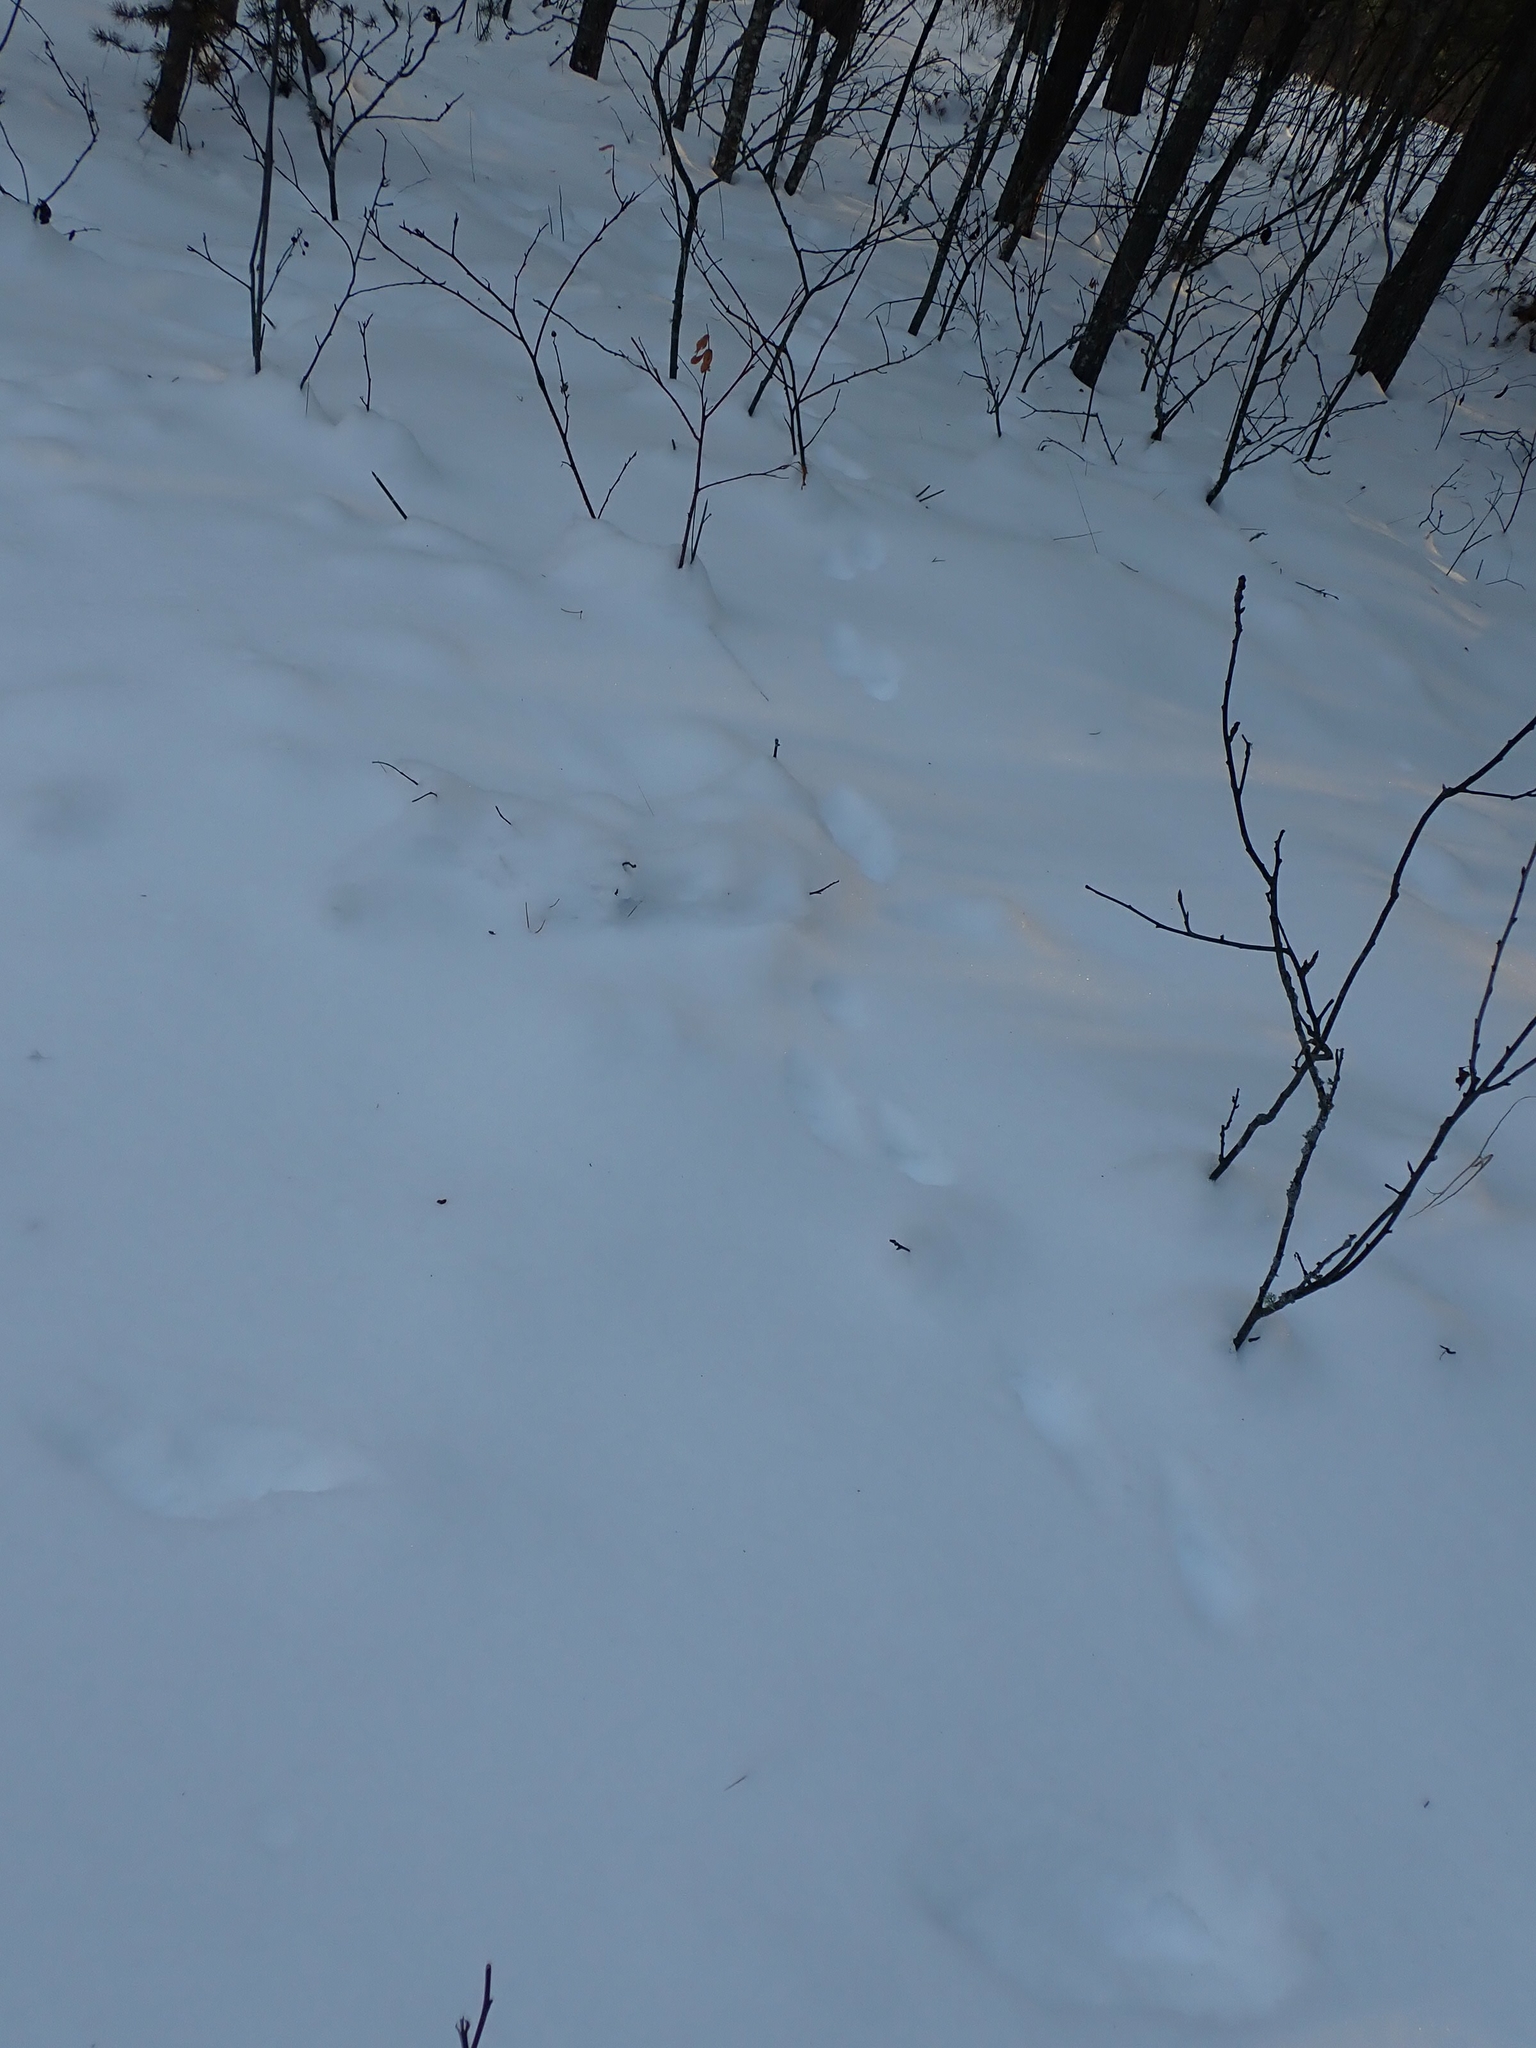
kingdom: Animalia
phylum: Chordata
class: Mammalia
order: Carnivora
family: Mustelidae
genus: Martes
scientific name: Martes americana
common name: American marten
